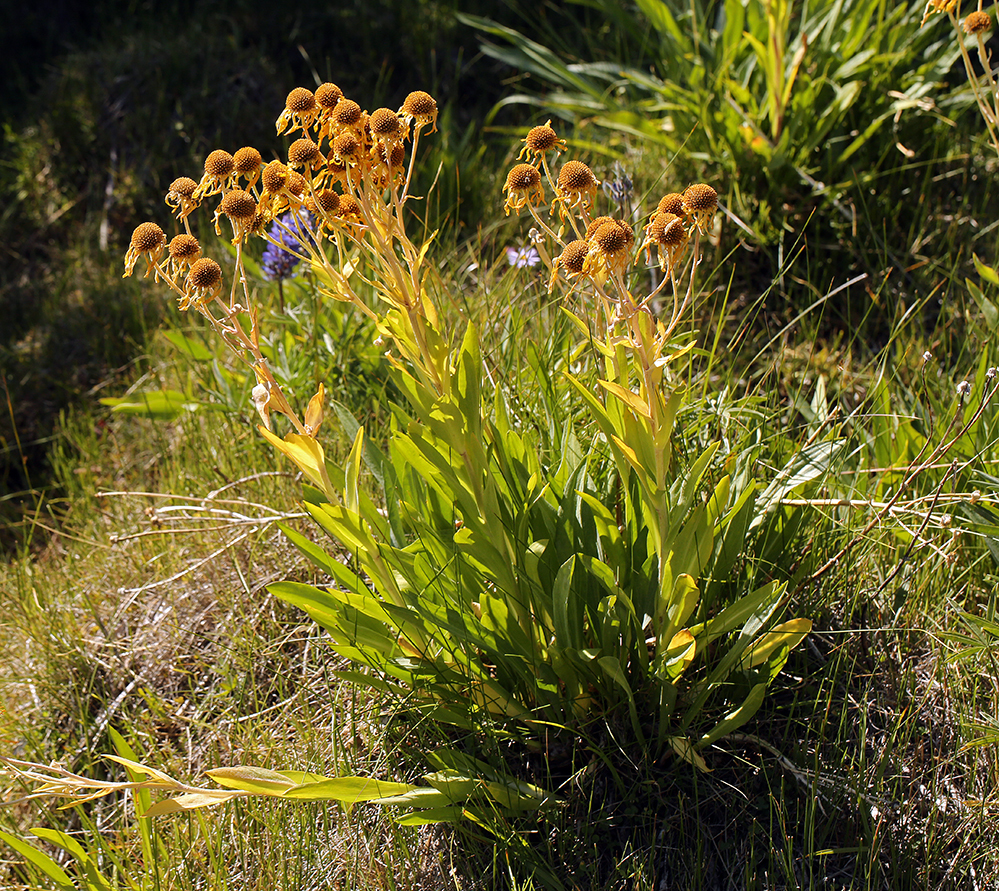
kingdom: Plantae
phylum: Tracheophyta
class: Magnoliopsida
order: Asterales
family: Asteraceae
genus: Hymenoxys
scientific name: Hymenoxys hoopesii
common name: Orange-sneezeweed
